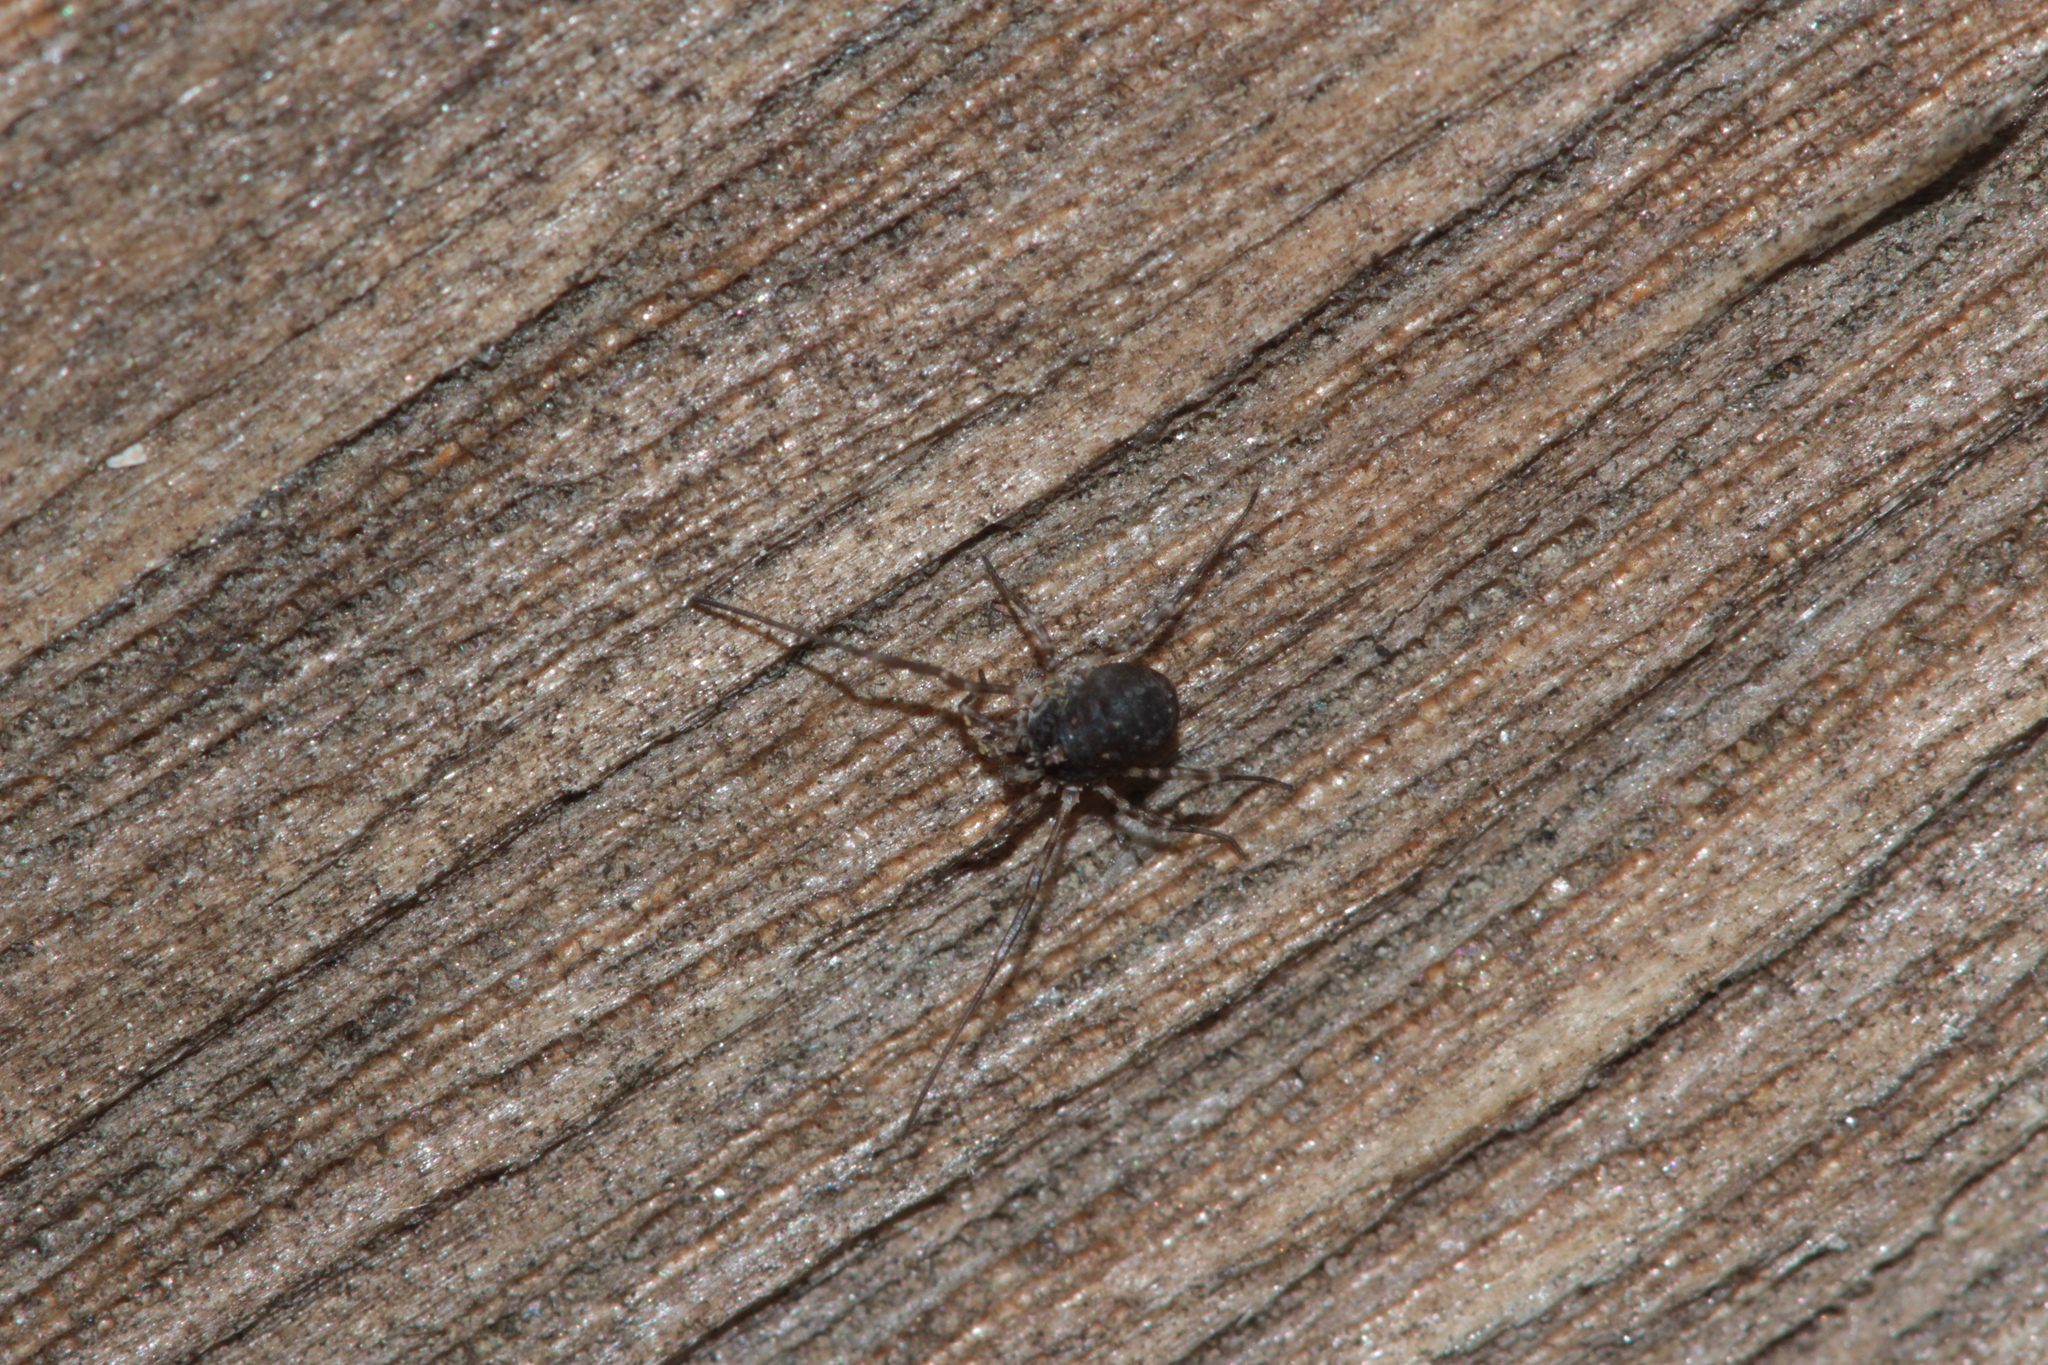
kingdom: Animalia
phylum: Arthropoda
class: Arachnida
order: Opiliones
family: Phalangiidae
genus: Lacinius
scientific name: Lacinius dentiger
